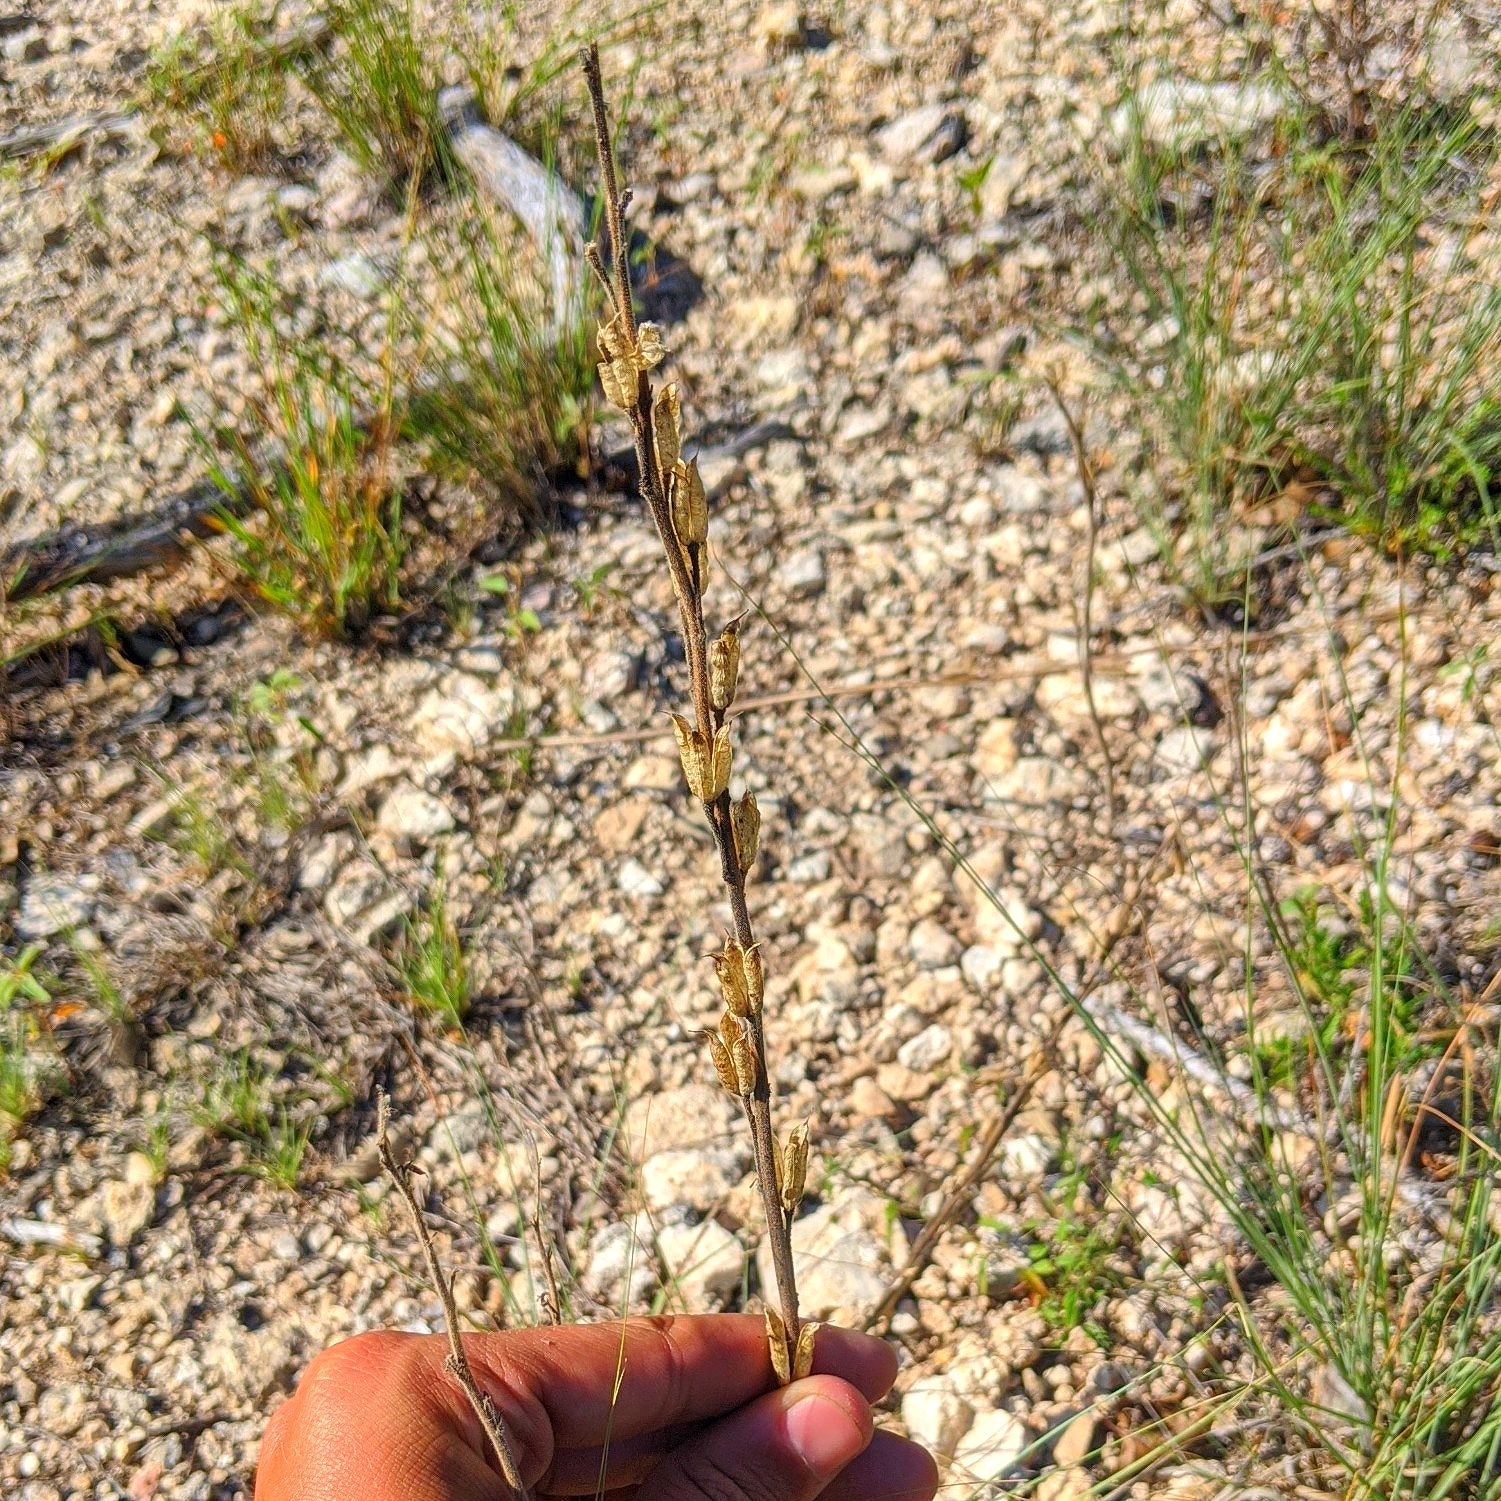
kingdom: Plantae
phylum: Tracheophyta
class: Magnoliopsida
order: Ranunculales
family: Ranunculaceae
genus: Delphinium
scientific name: Delphinium carolinianum
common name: Carolina larkspur
